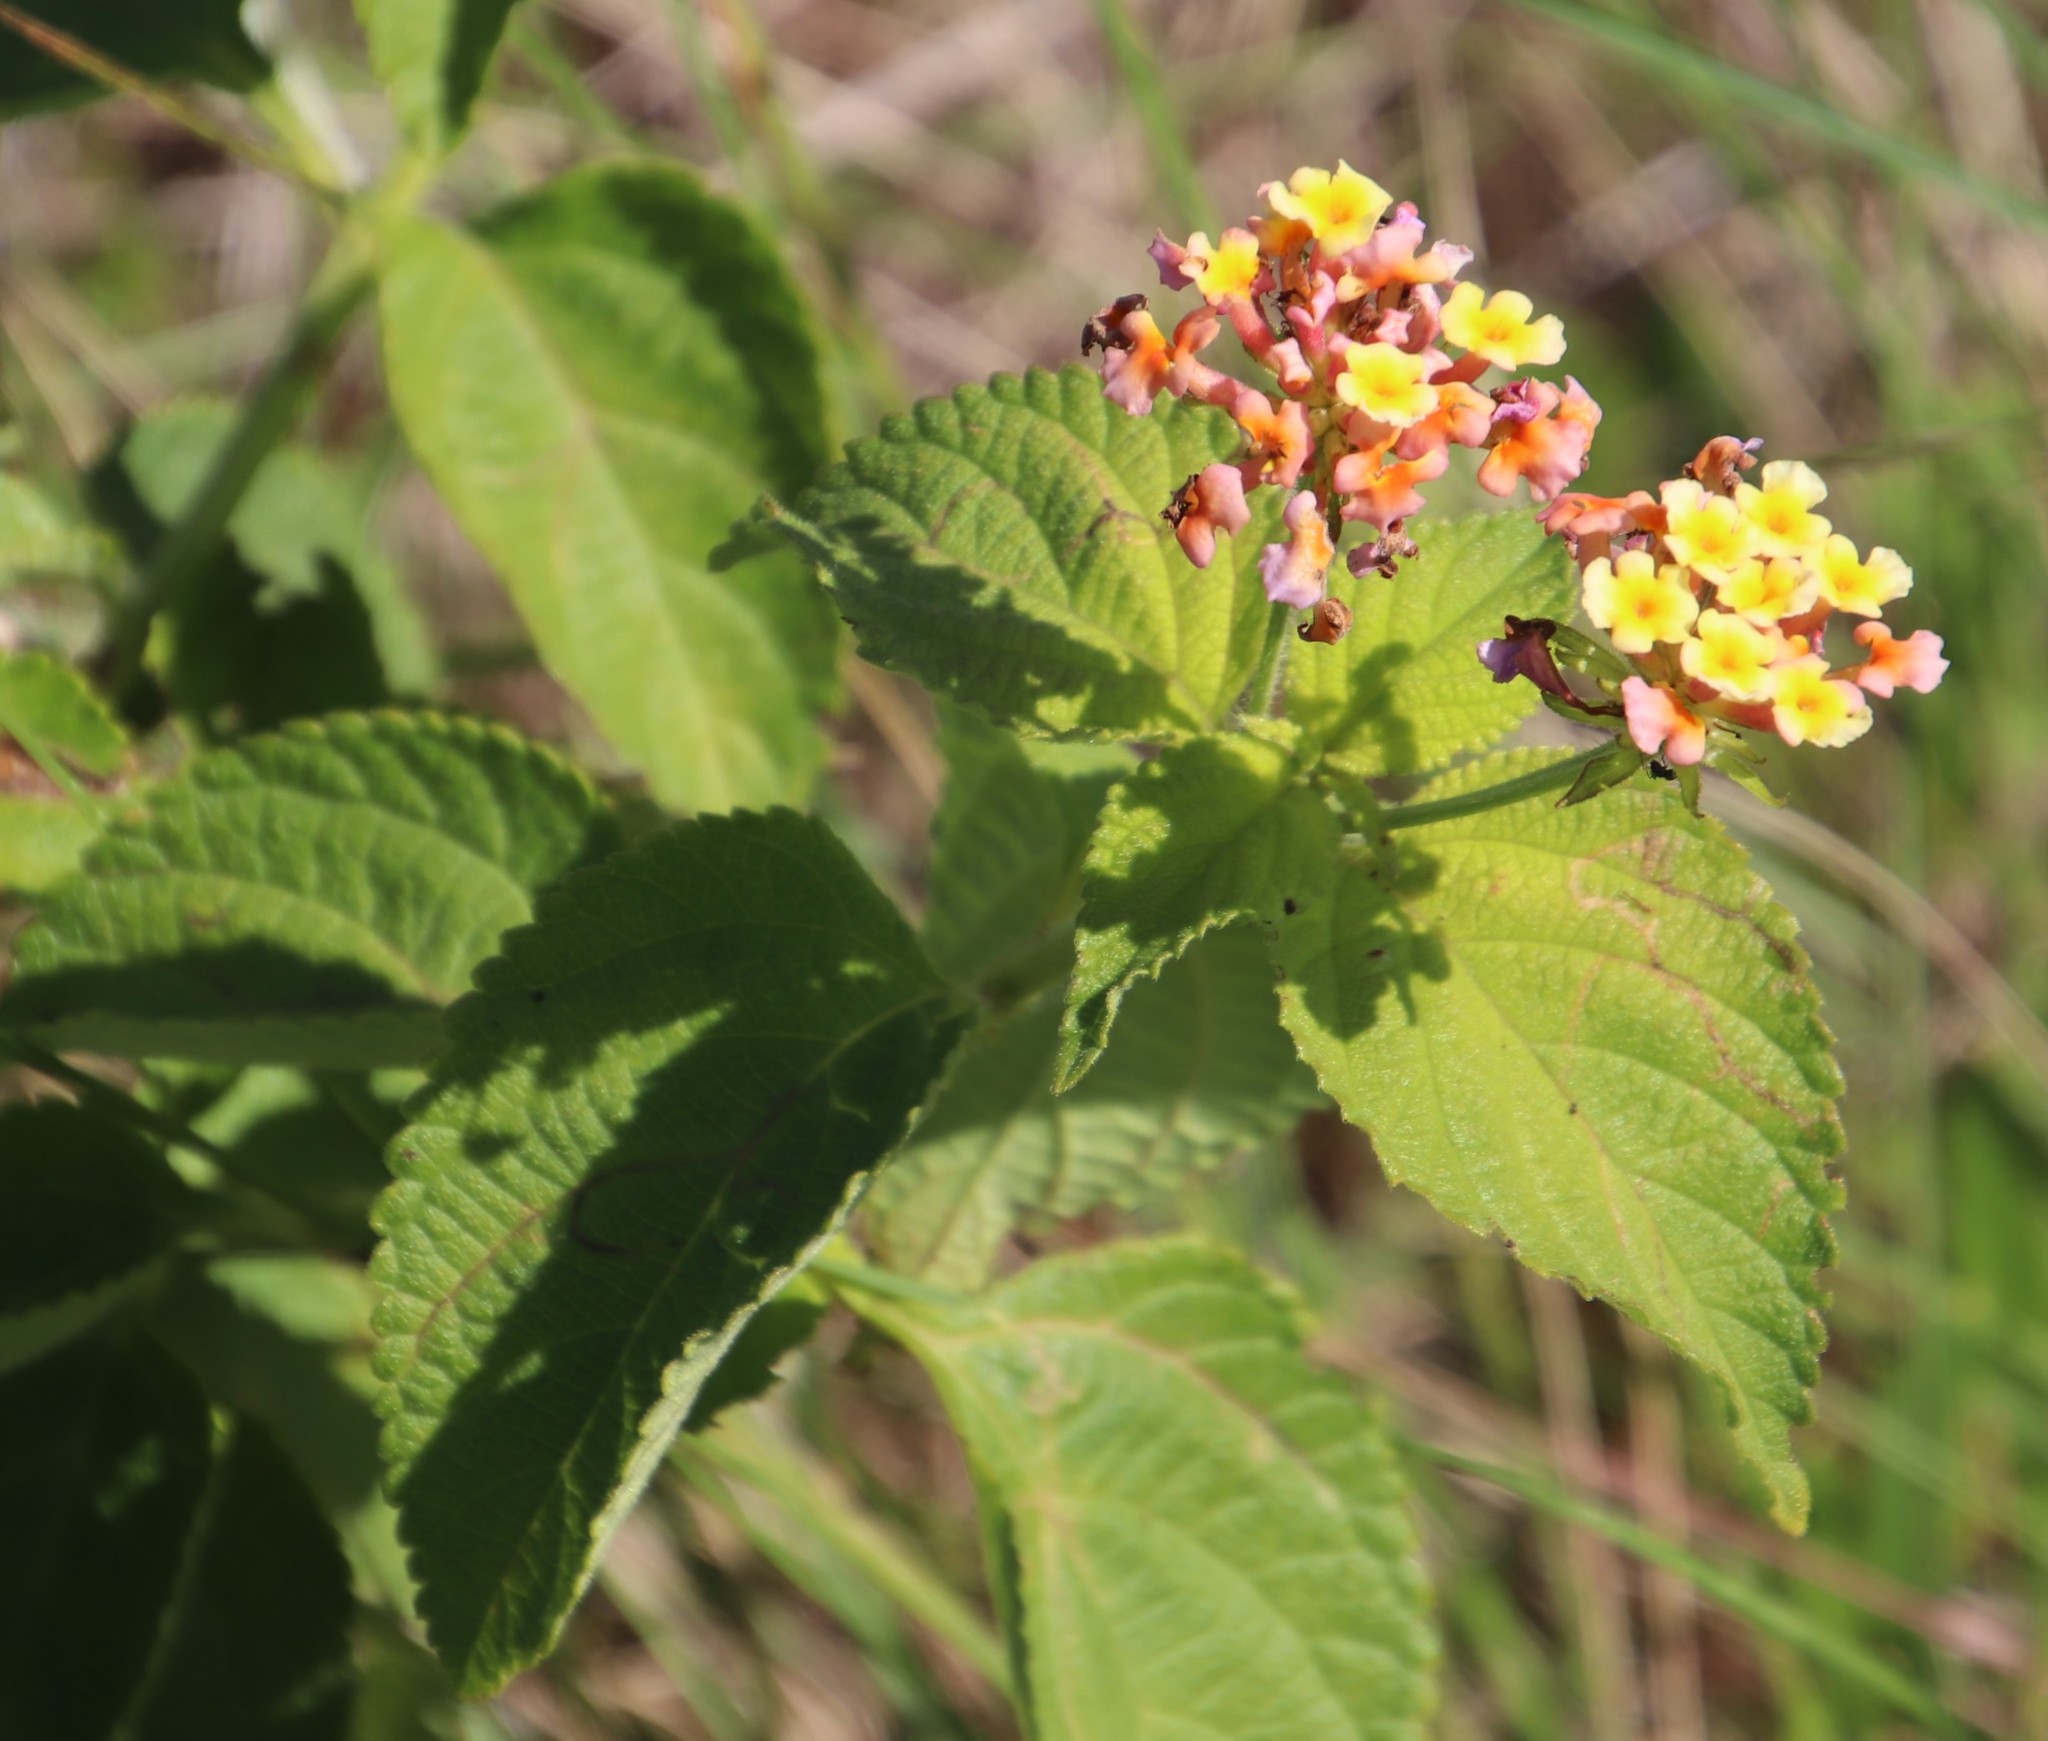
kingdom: Plantae
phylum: Tracheophyta
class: Magnoliopsida
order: Lamiales
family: Verbenaceae
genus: Lantana
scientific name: Lantana camara
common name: Lantana
